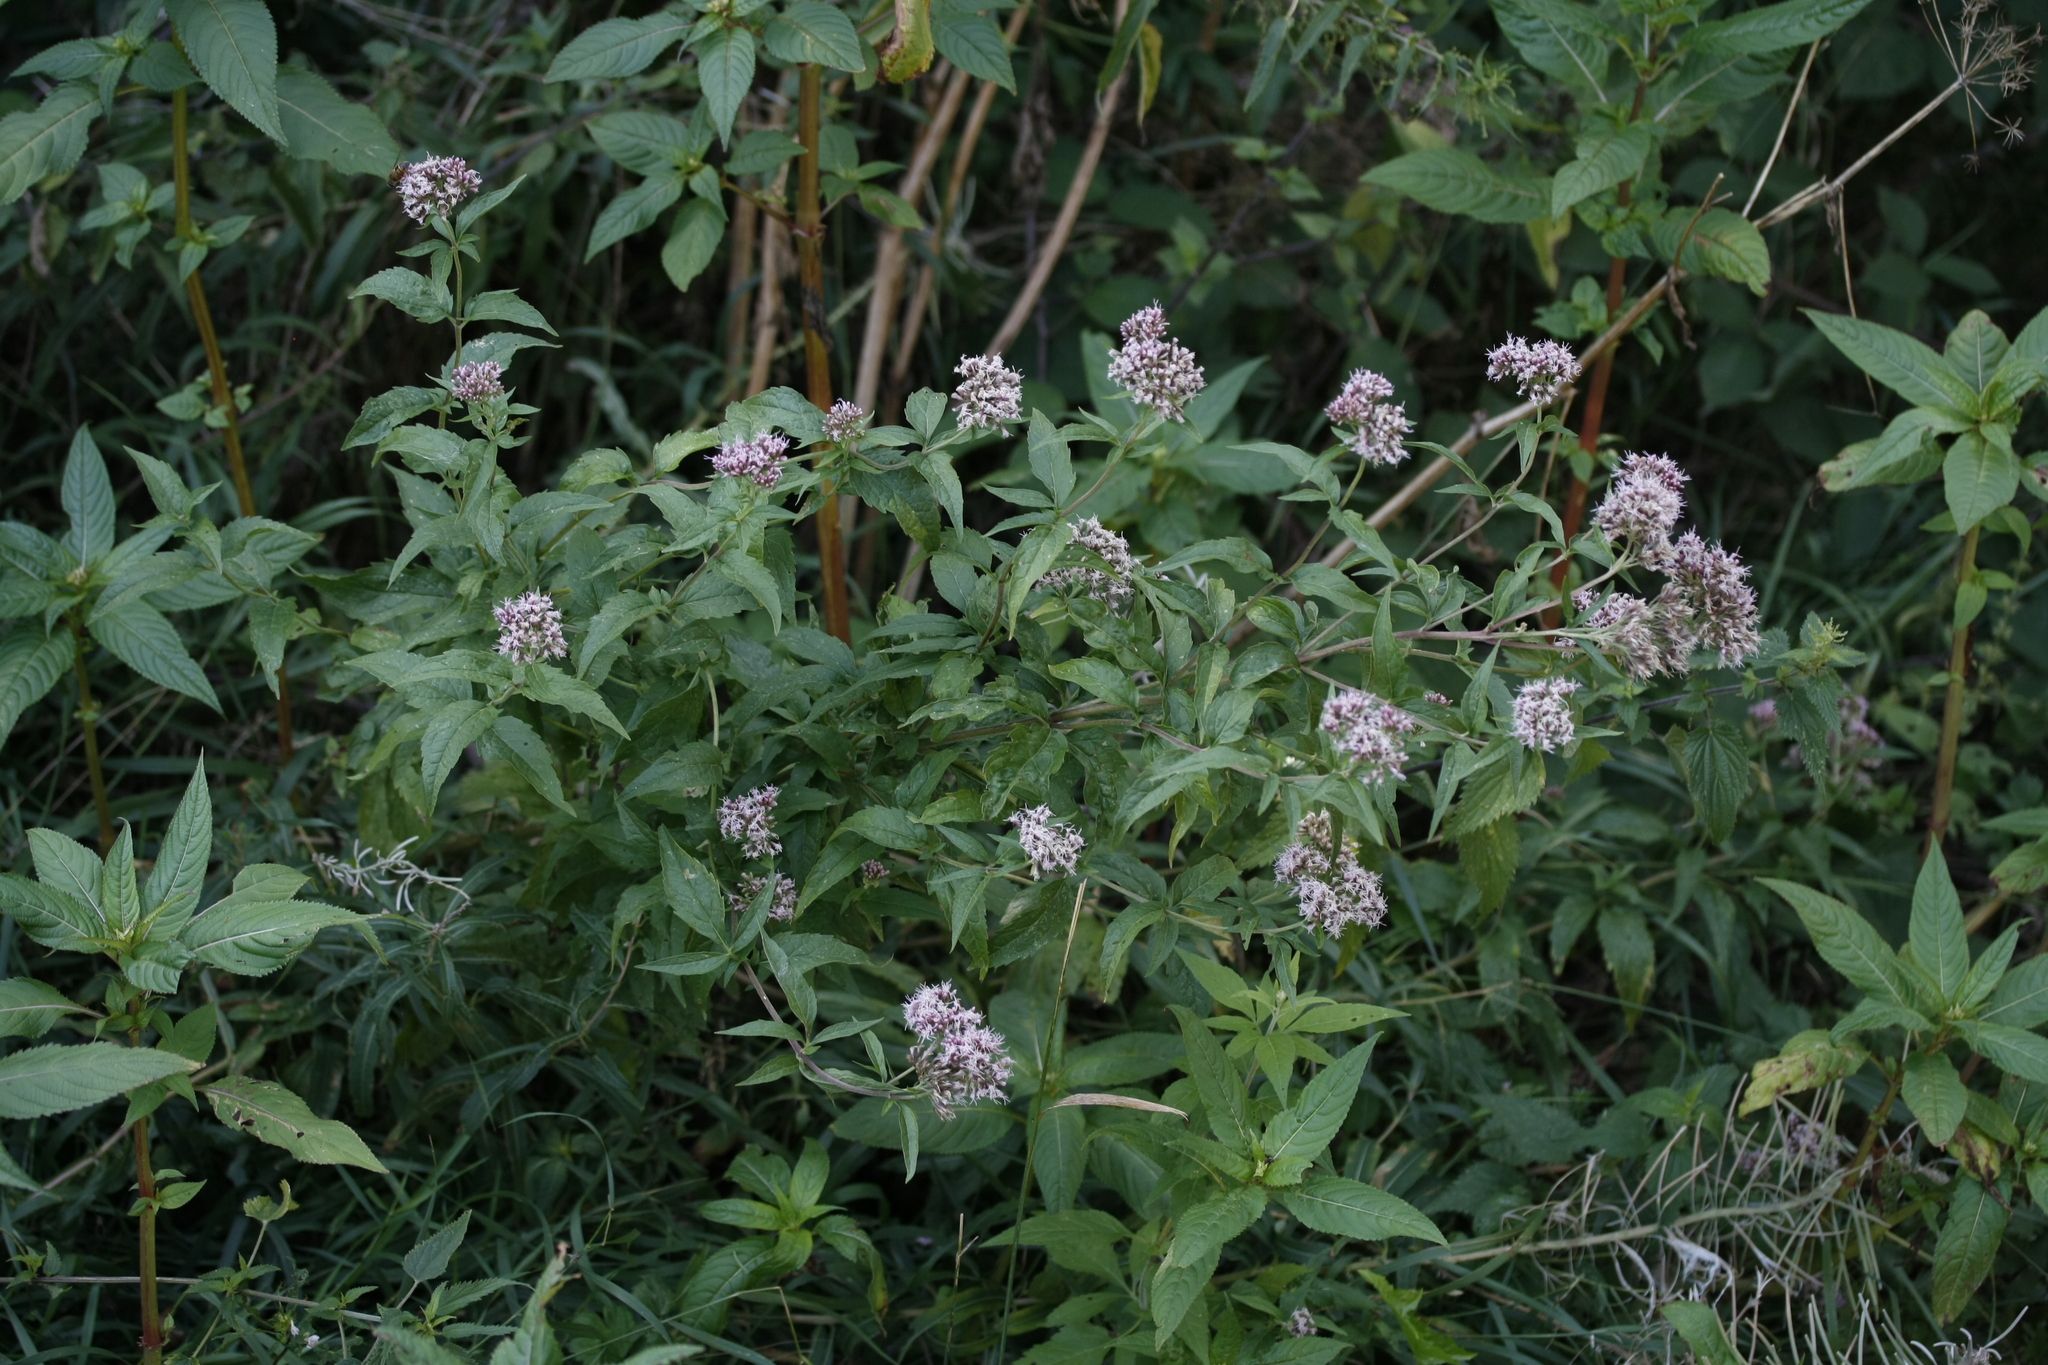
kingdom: Plantae
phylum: Tracheophyta
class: Magnoliopsida
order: Asterales
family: Asteraceae
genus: Eupatorium
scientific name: Eupatorium cannabinum
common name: Hemp-agrimony
